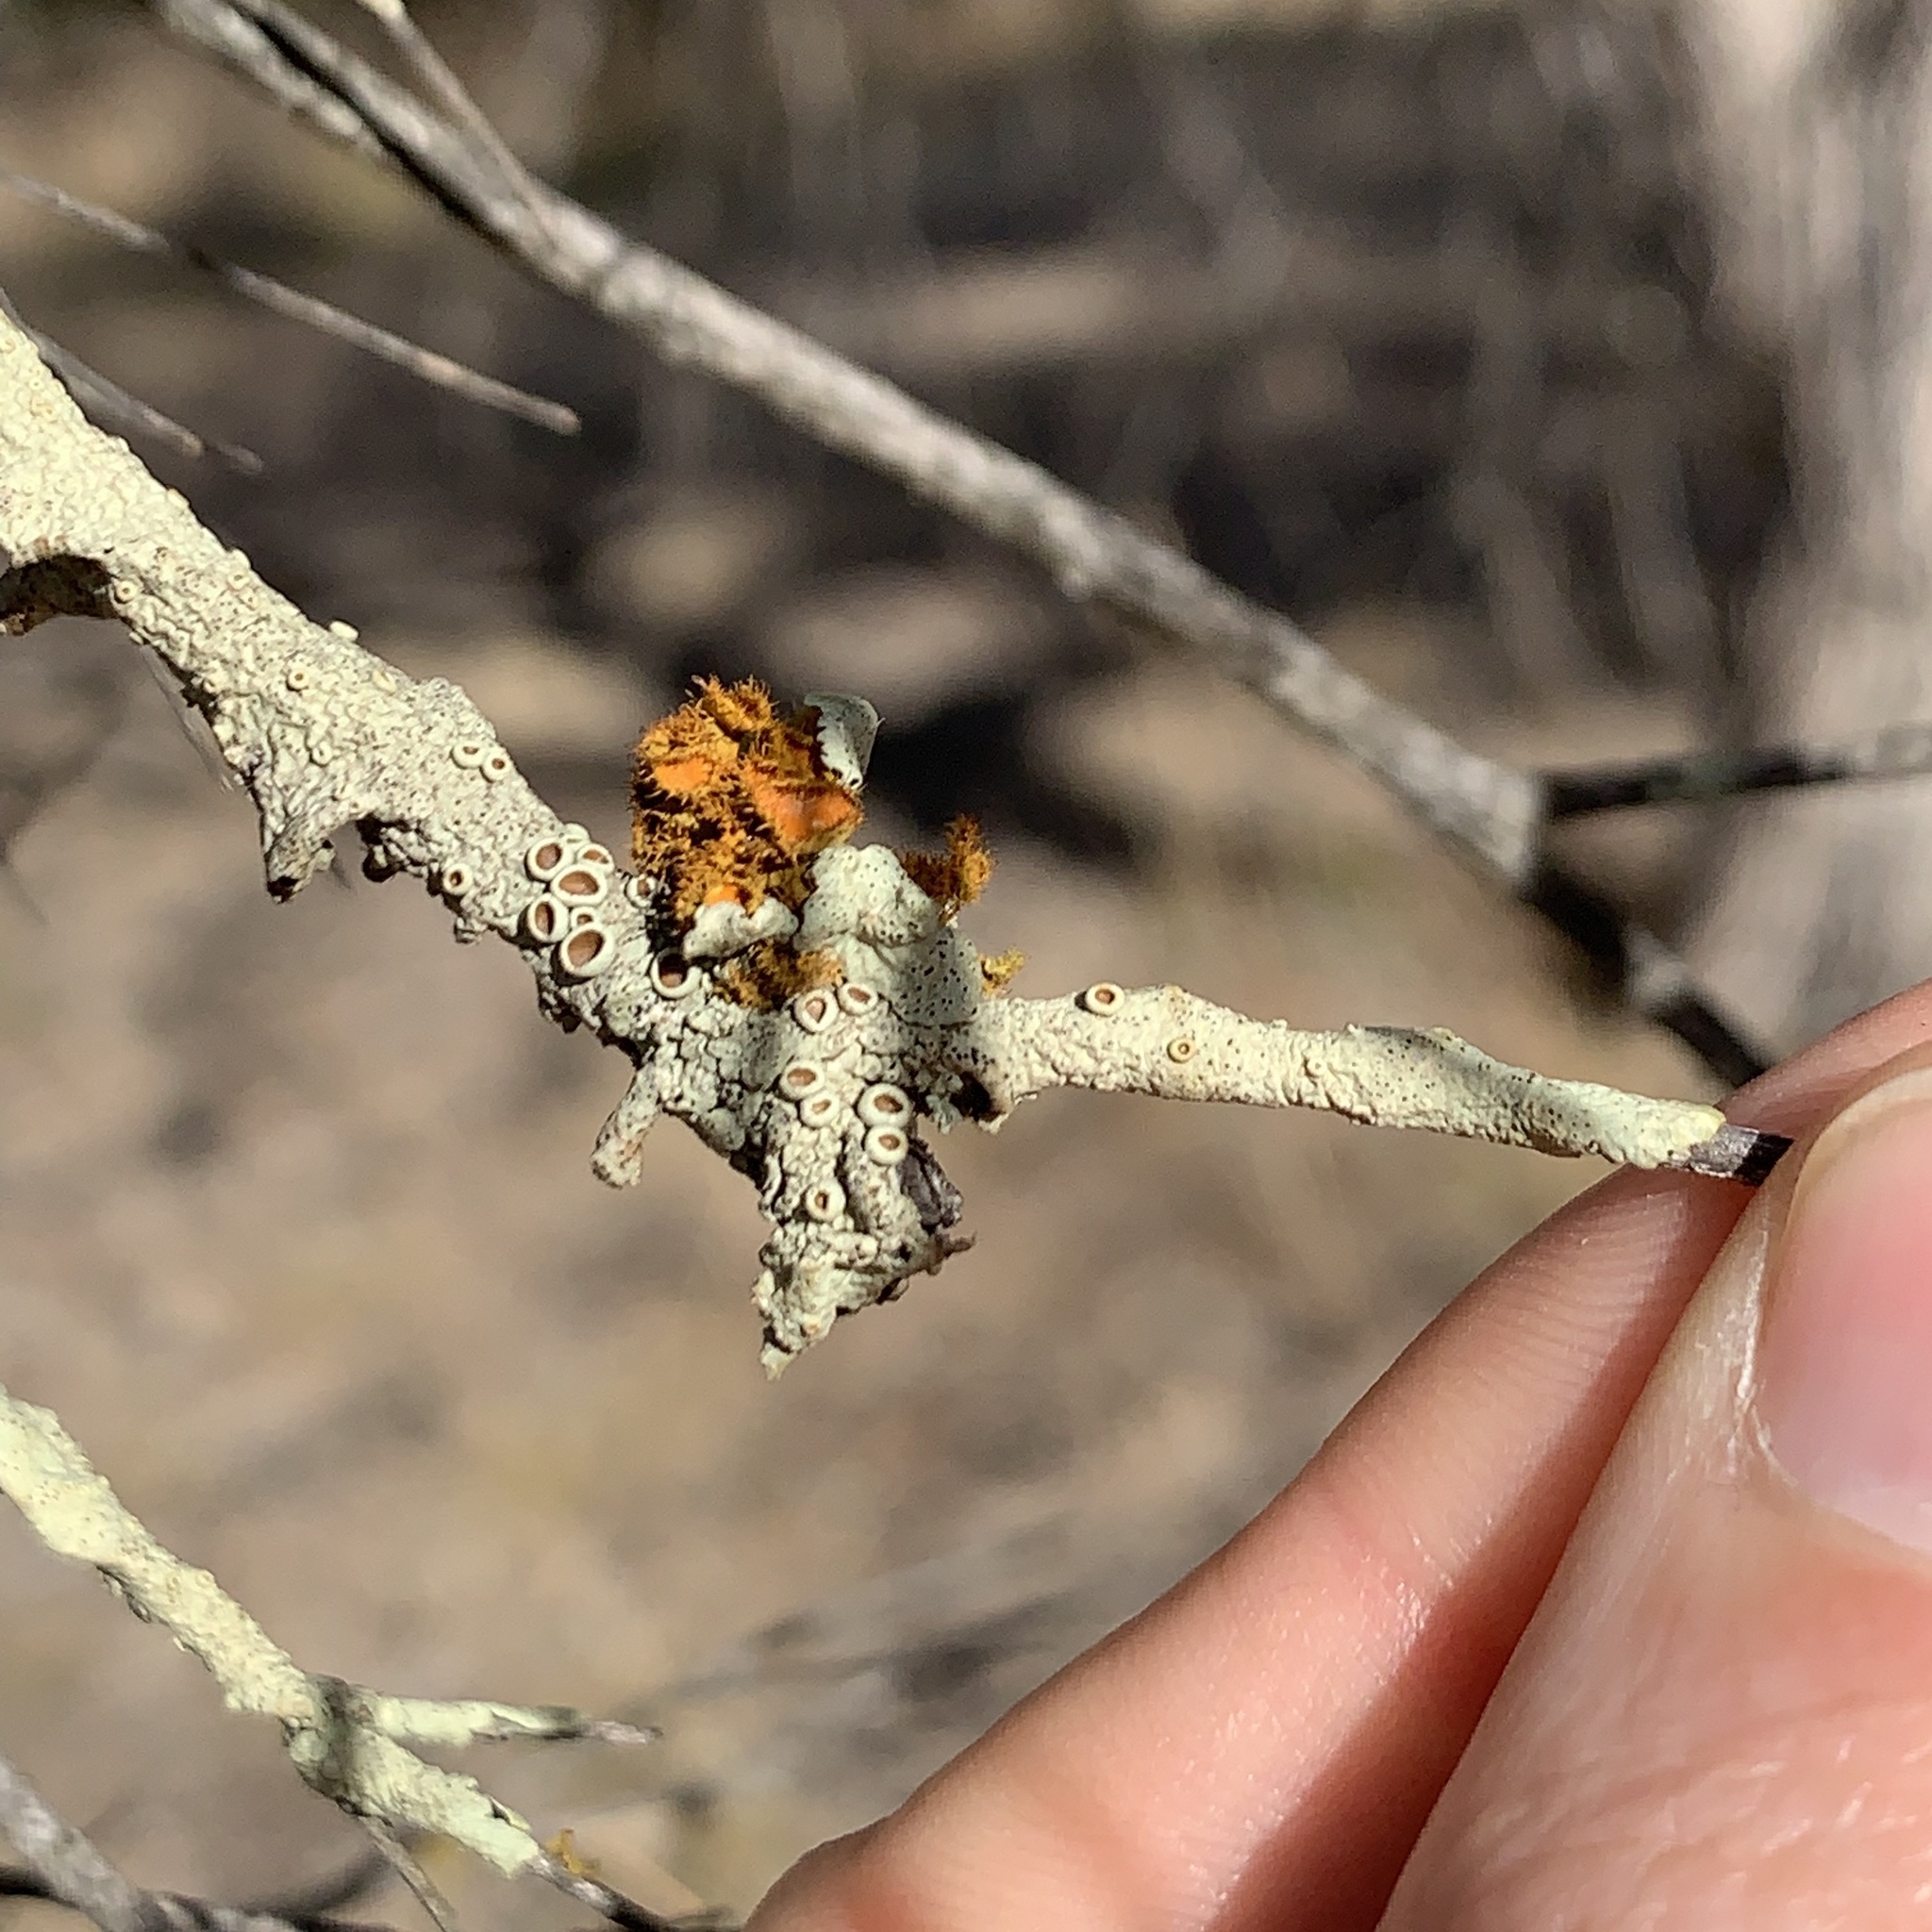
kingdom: Fungi
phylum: Ascomycota
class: Lecanoromycetes
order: Teloschistales
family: Teloschistaceae
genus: Niorma
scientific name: Niorma chrysophthalma
